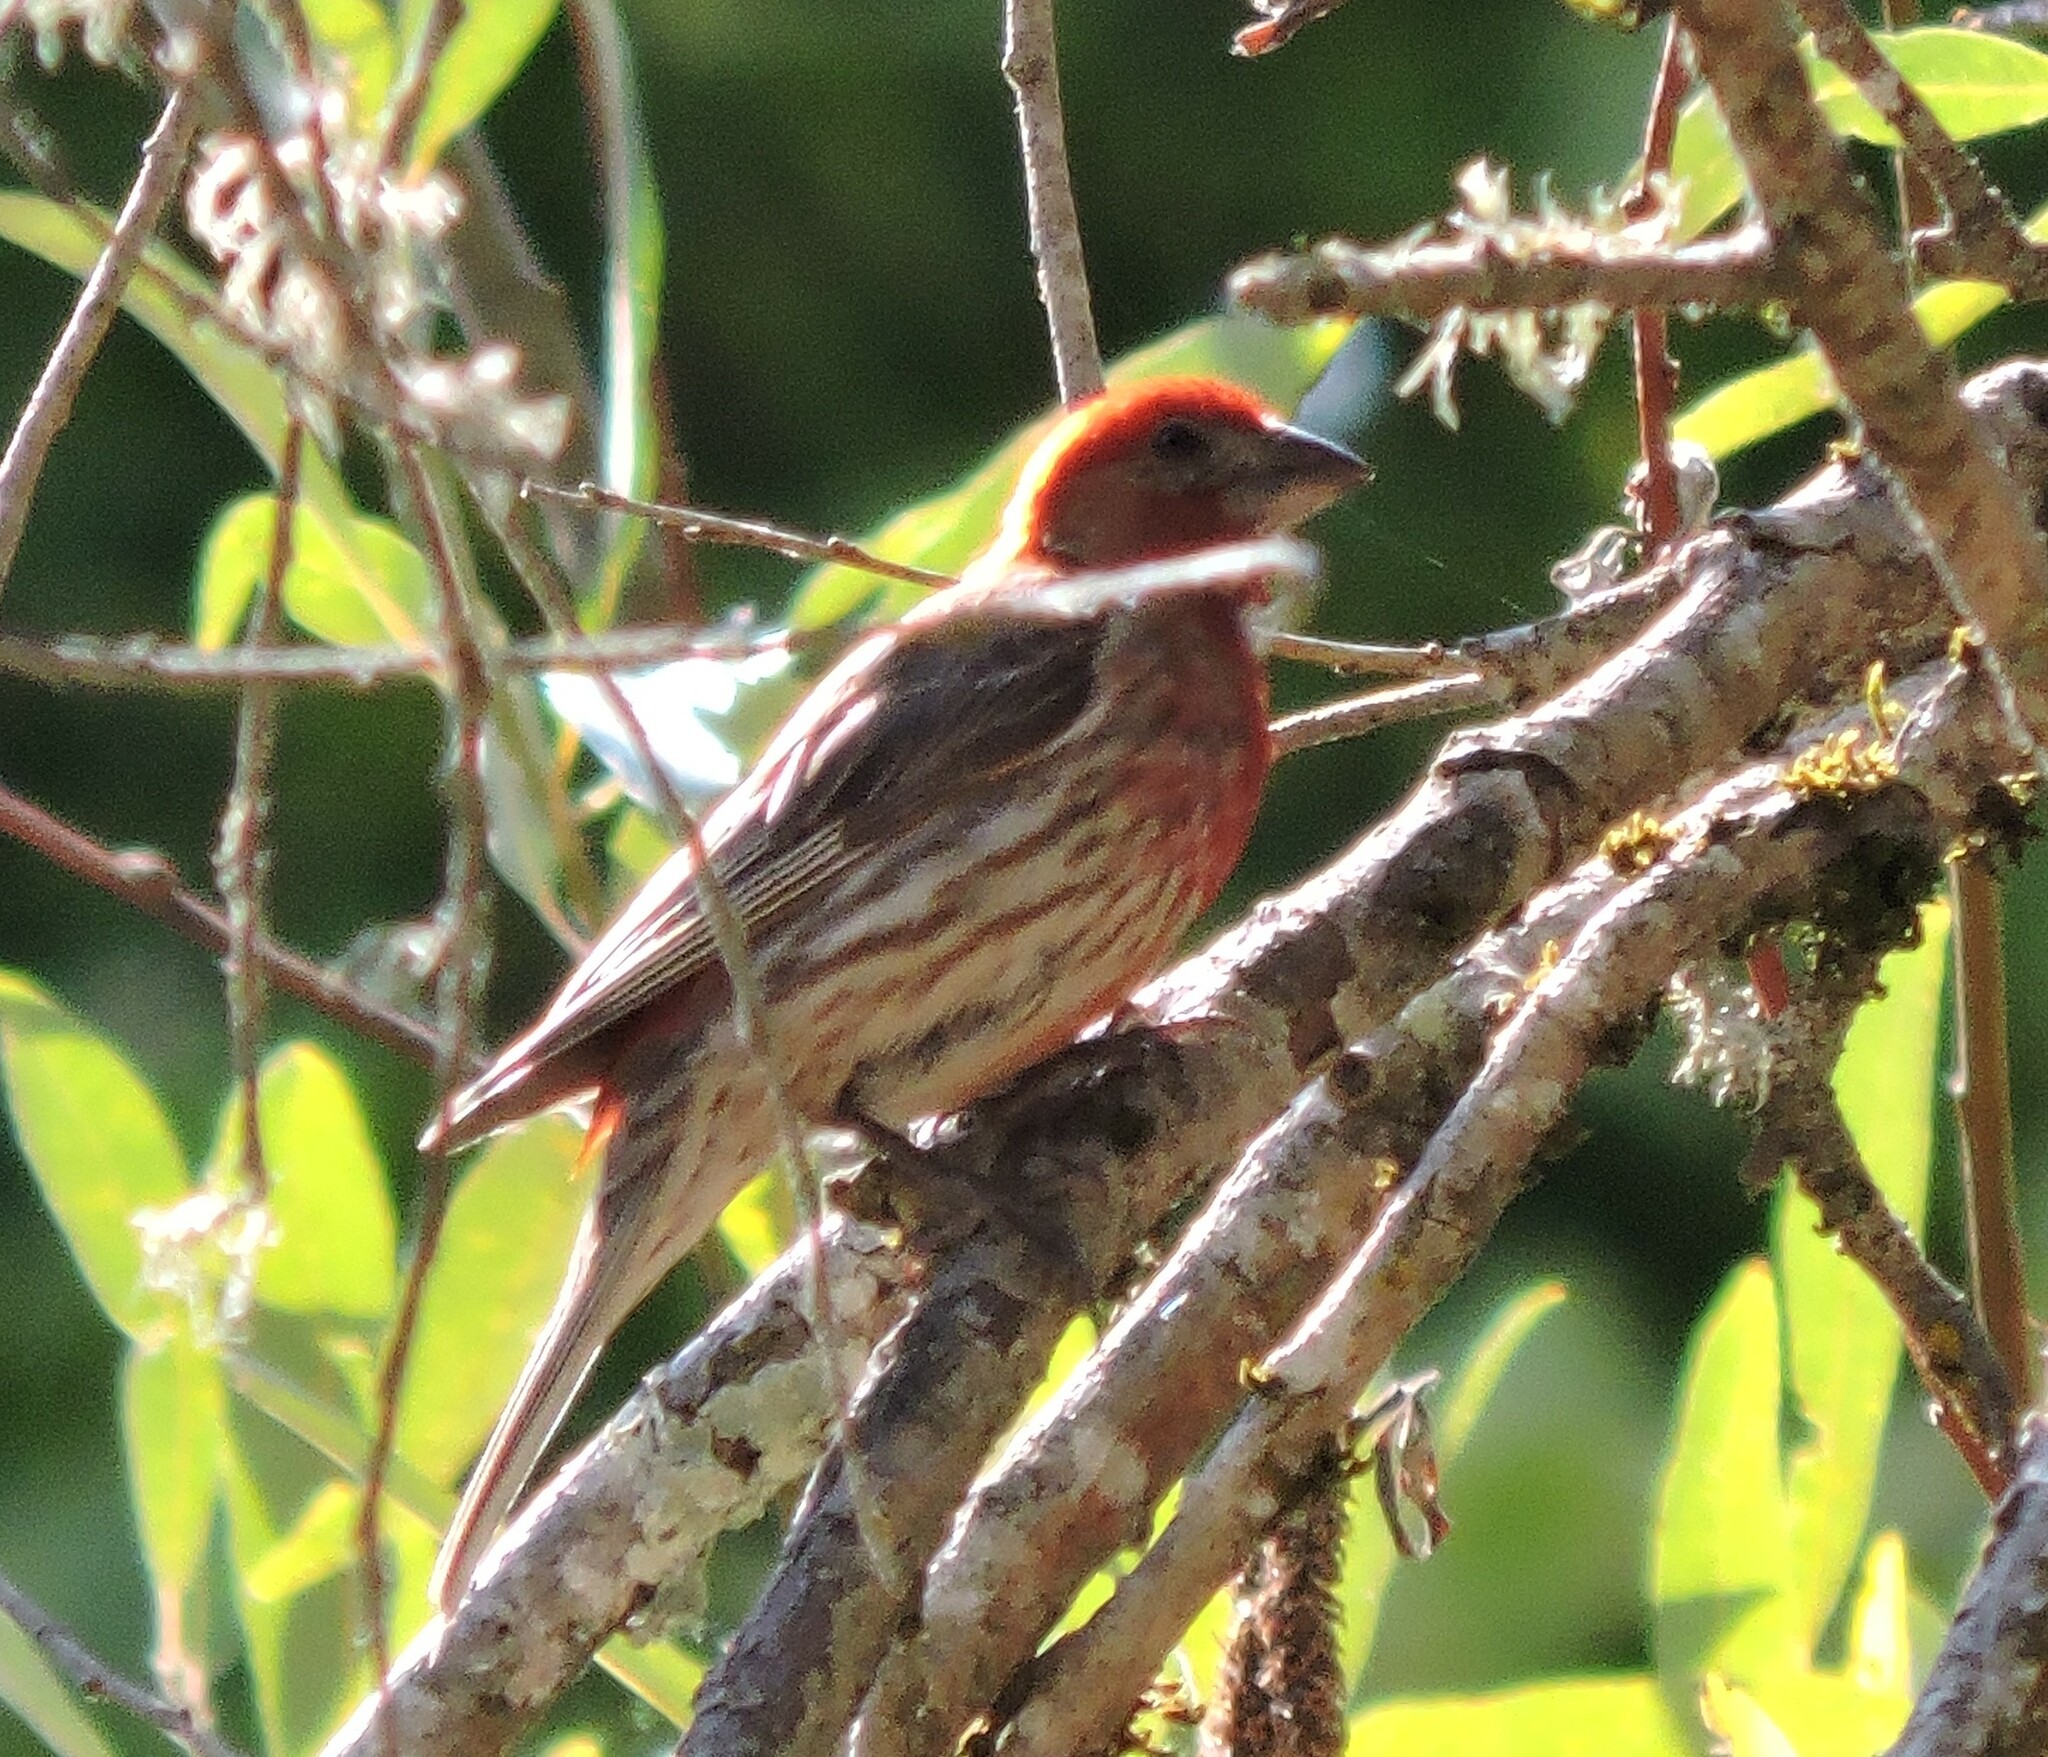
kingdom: Animalia
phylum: Chordata
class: Aves
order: Passeriformes
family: Fringillidae
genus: Haemorhous
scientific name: Haemorhous mexicanus
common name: House finch
